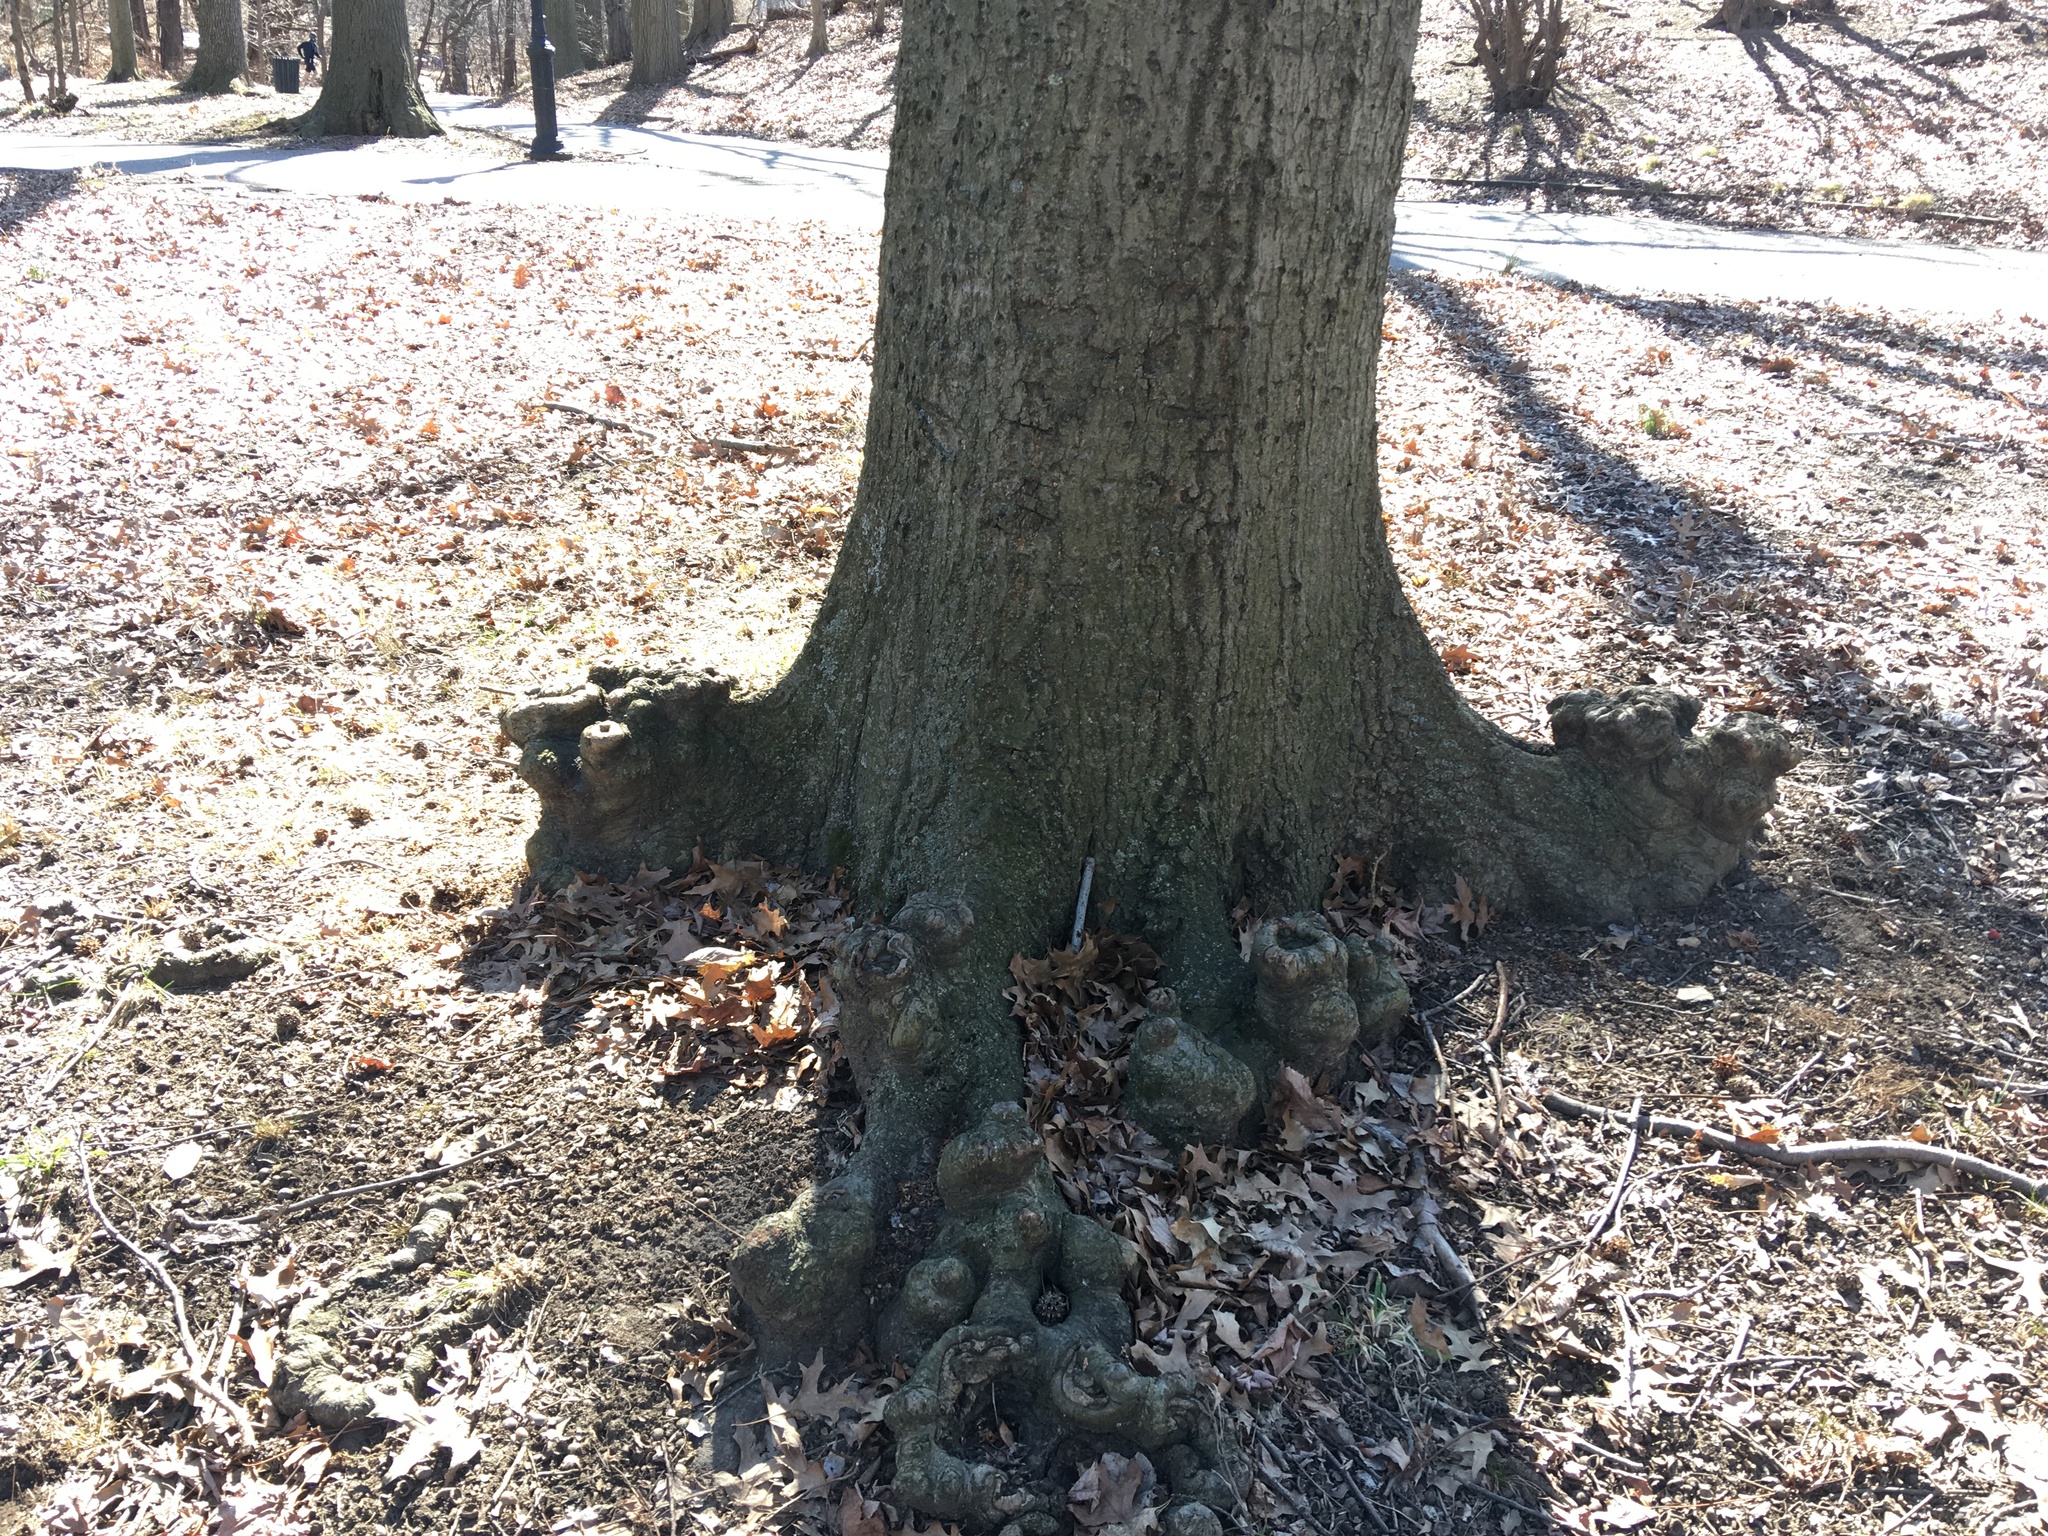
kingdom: Plantae
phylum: Tracheophyta
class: Magnoliopsida
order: Fagales
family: Fagaceae
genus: Quercus
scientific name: Quercus palustris
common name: Pin oak
